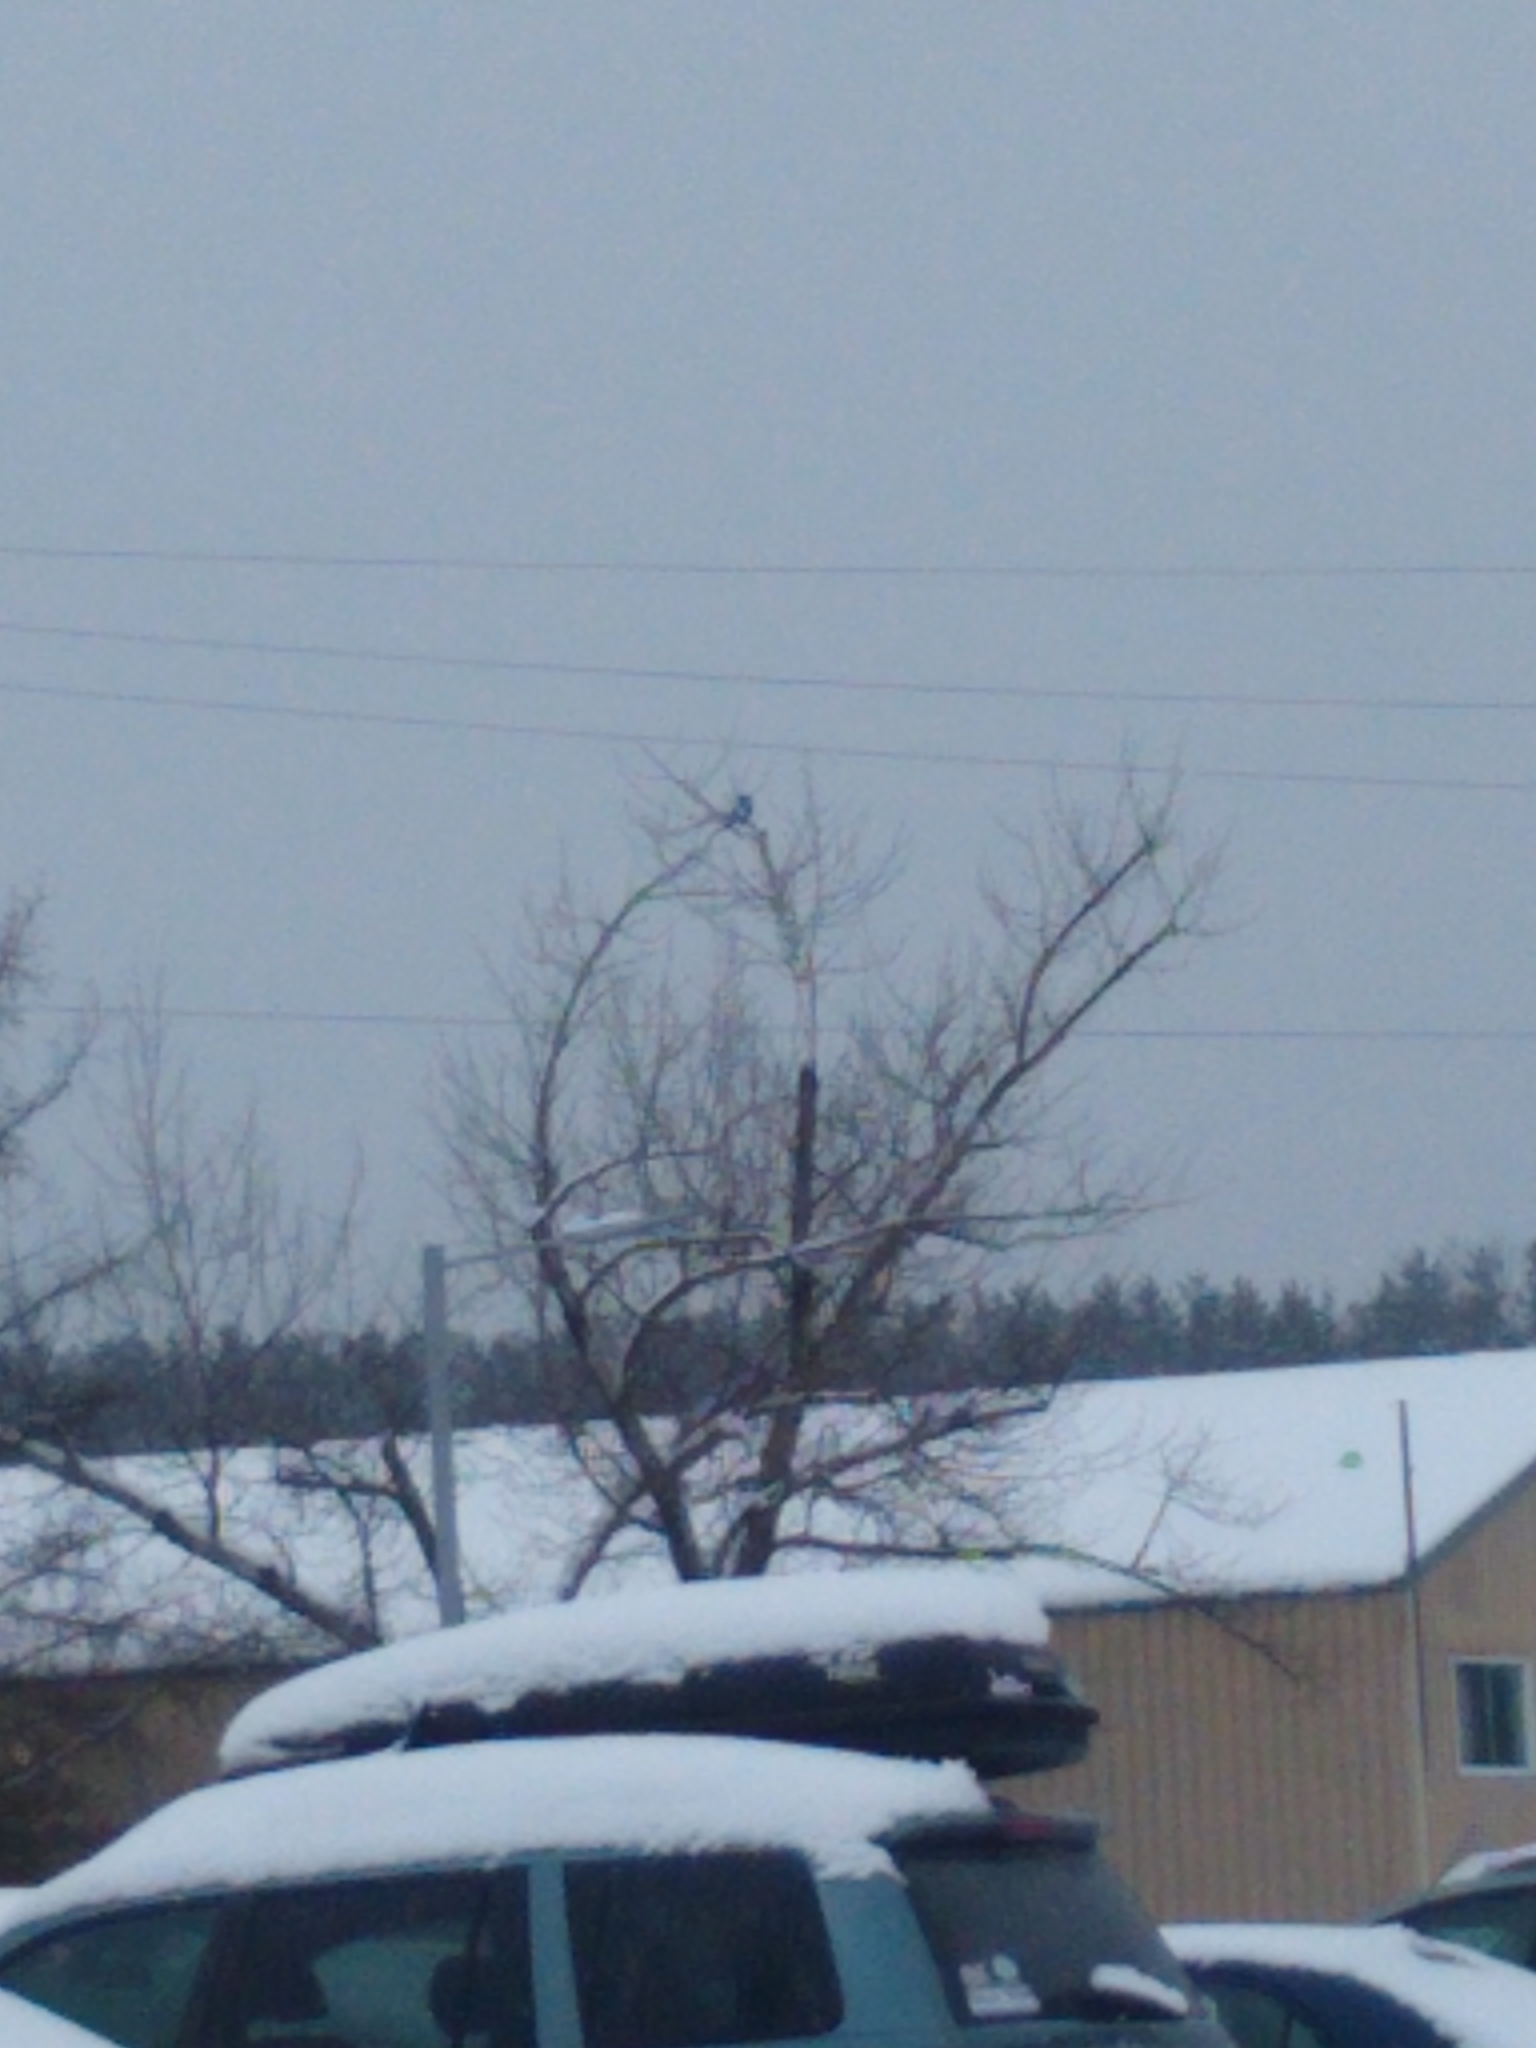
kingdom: Animalia
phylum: Chordata
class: Aves
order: Passeriformes
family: Corvidae
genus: Corvus
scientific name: Corvus brachyrhynchos
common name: American crow
